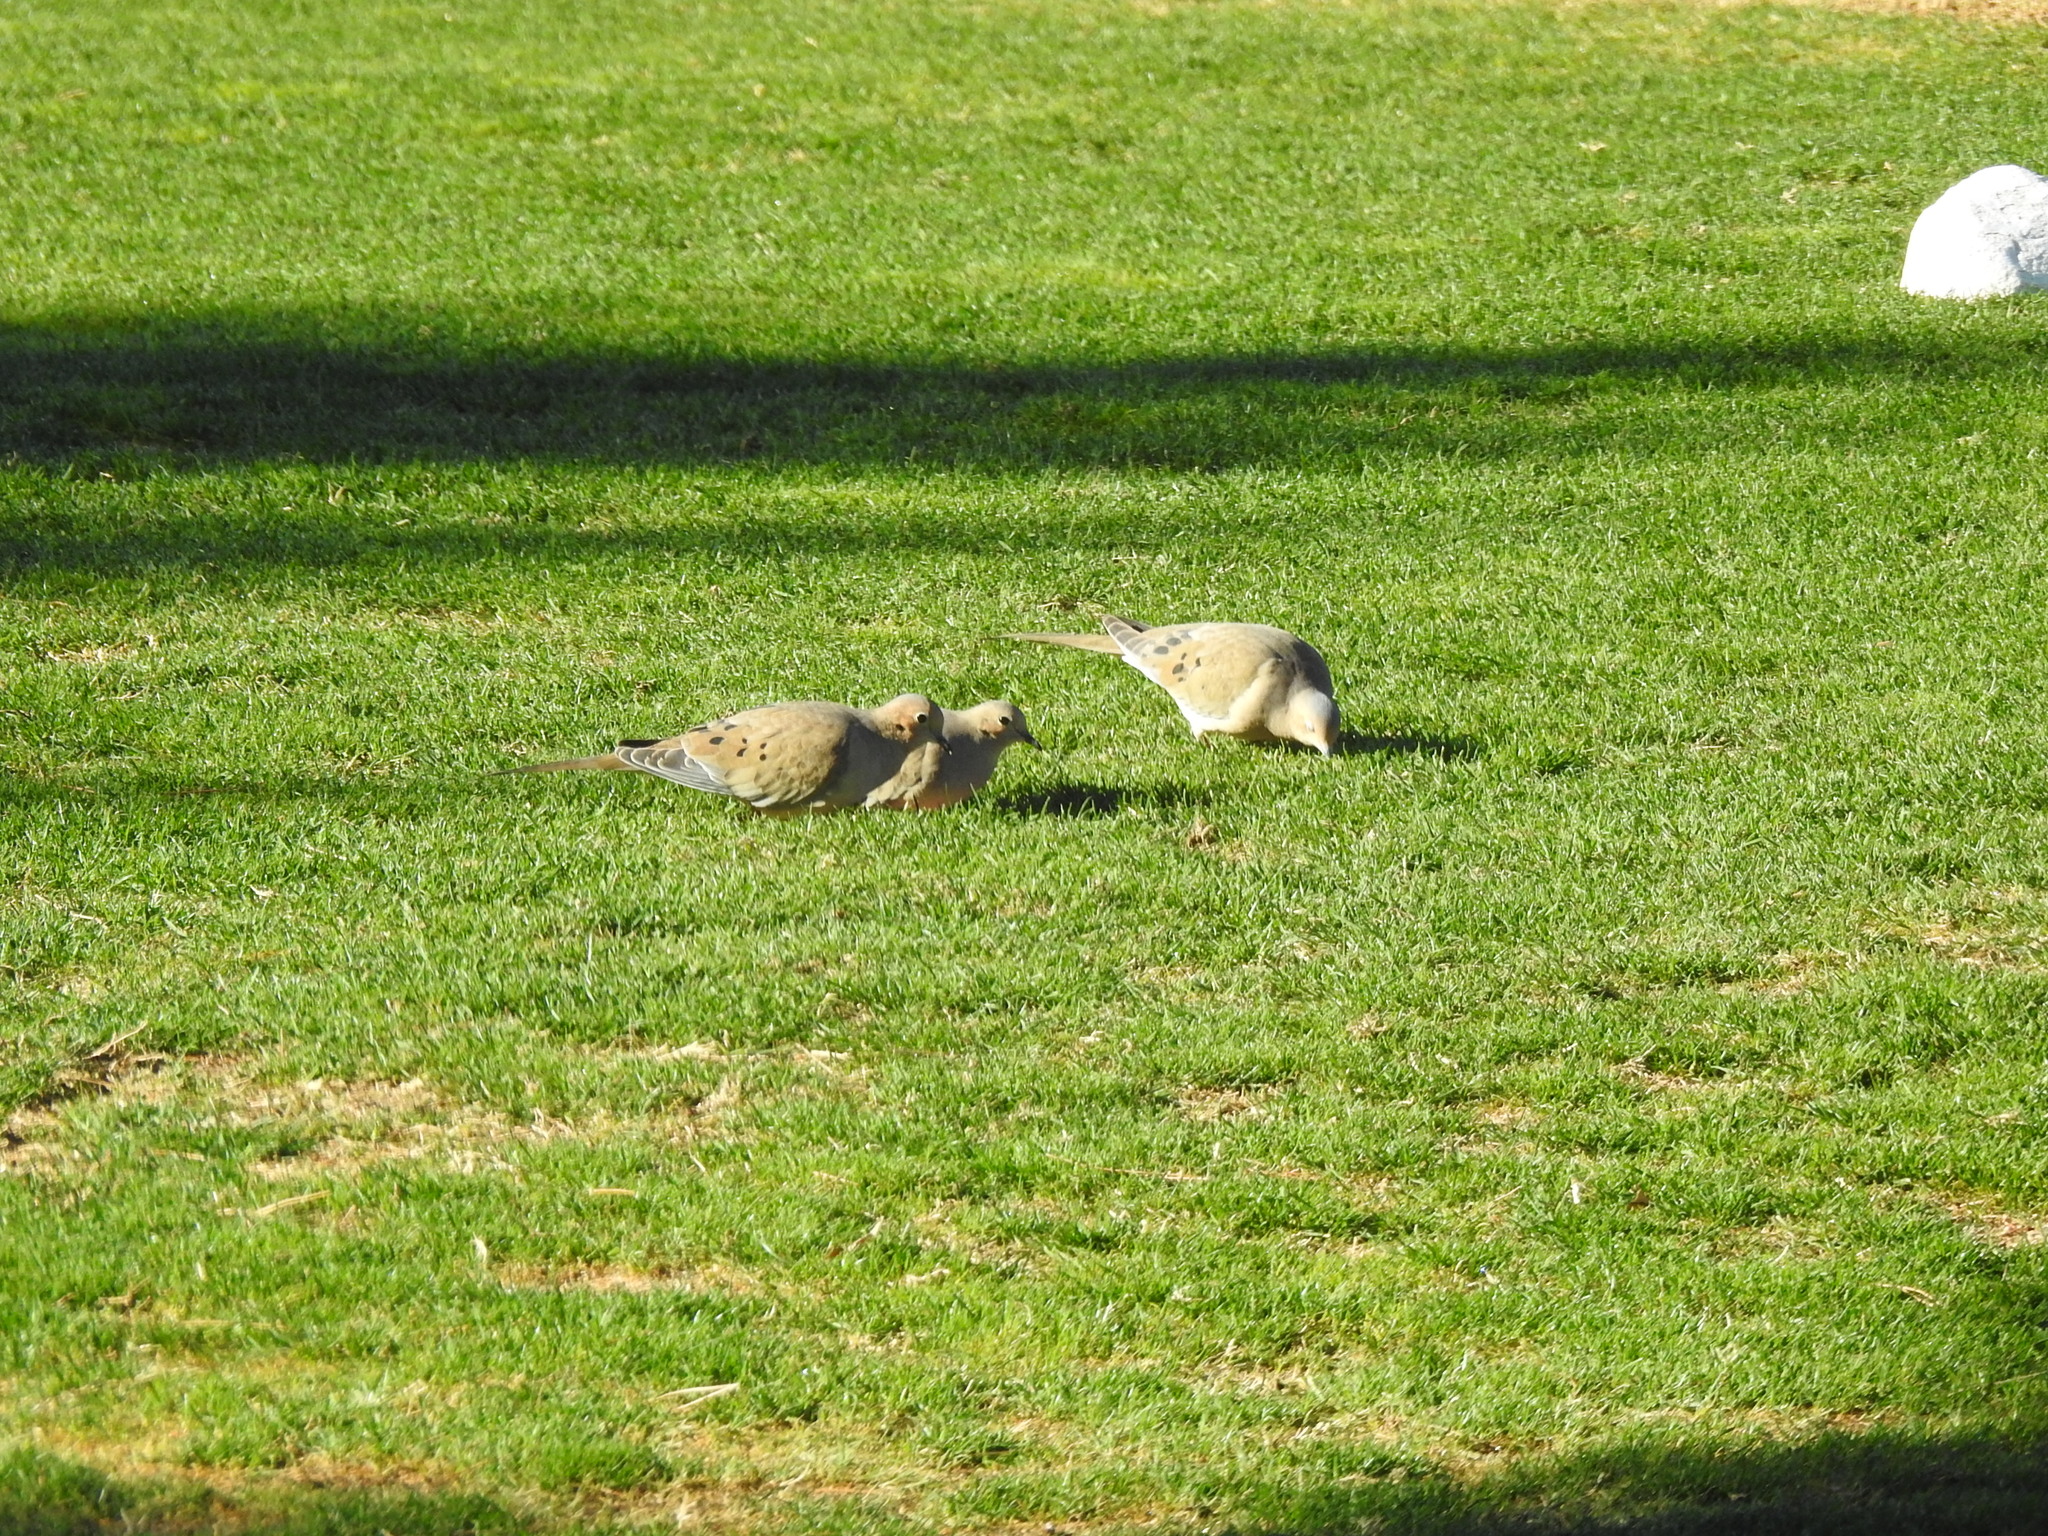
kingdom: Animalia
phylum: Chordata
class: Aves
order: Columbiformes
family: Columbidae
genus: Zenaida
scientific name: Zenaida macroura
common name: Mourning dove
